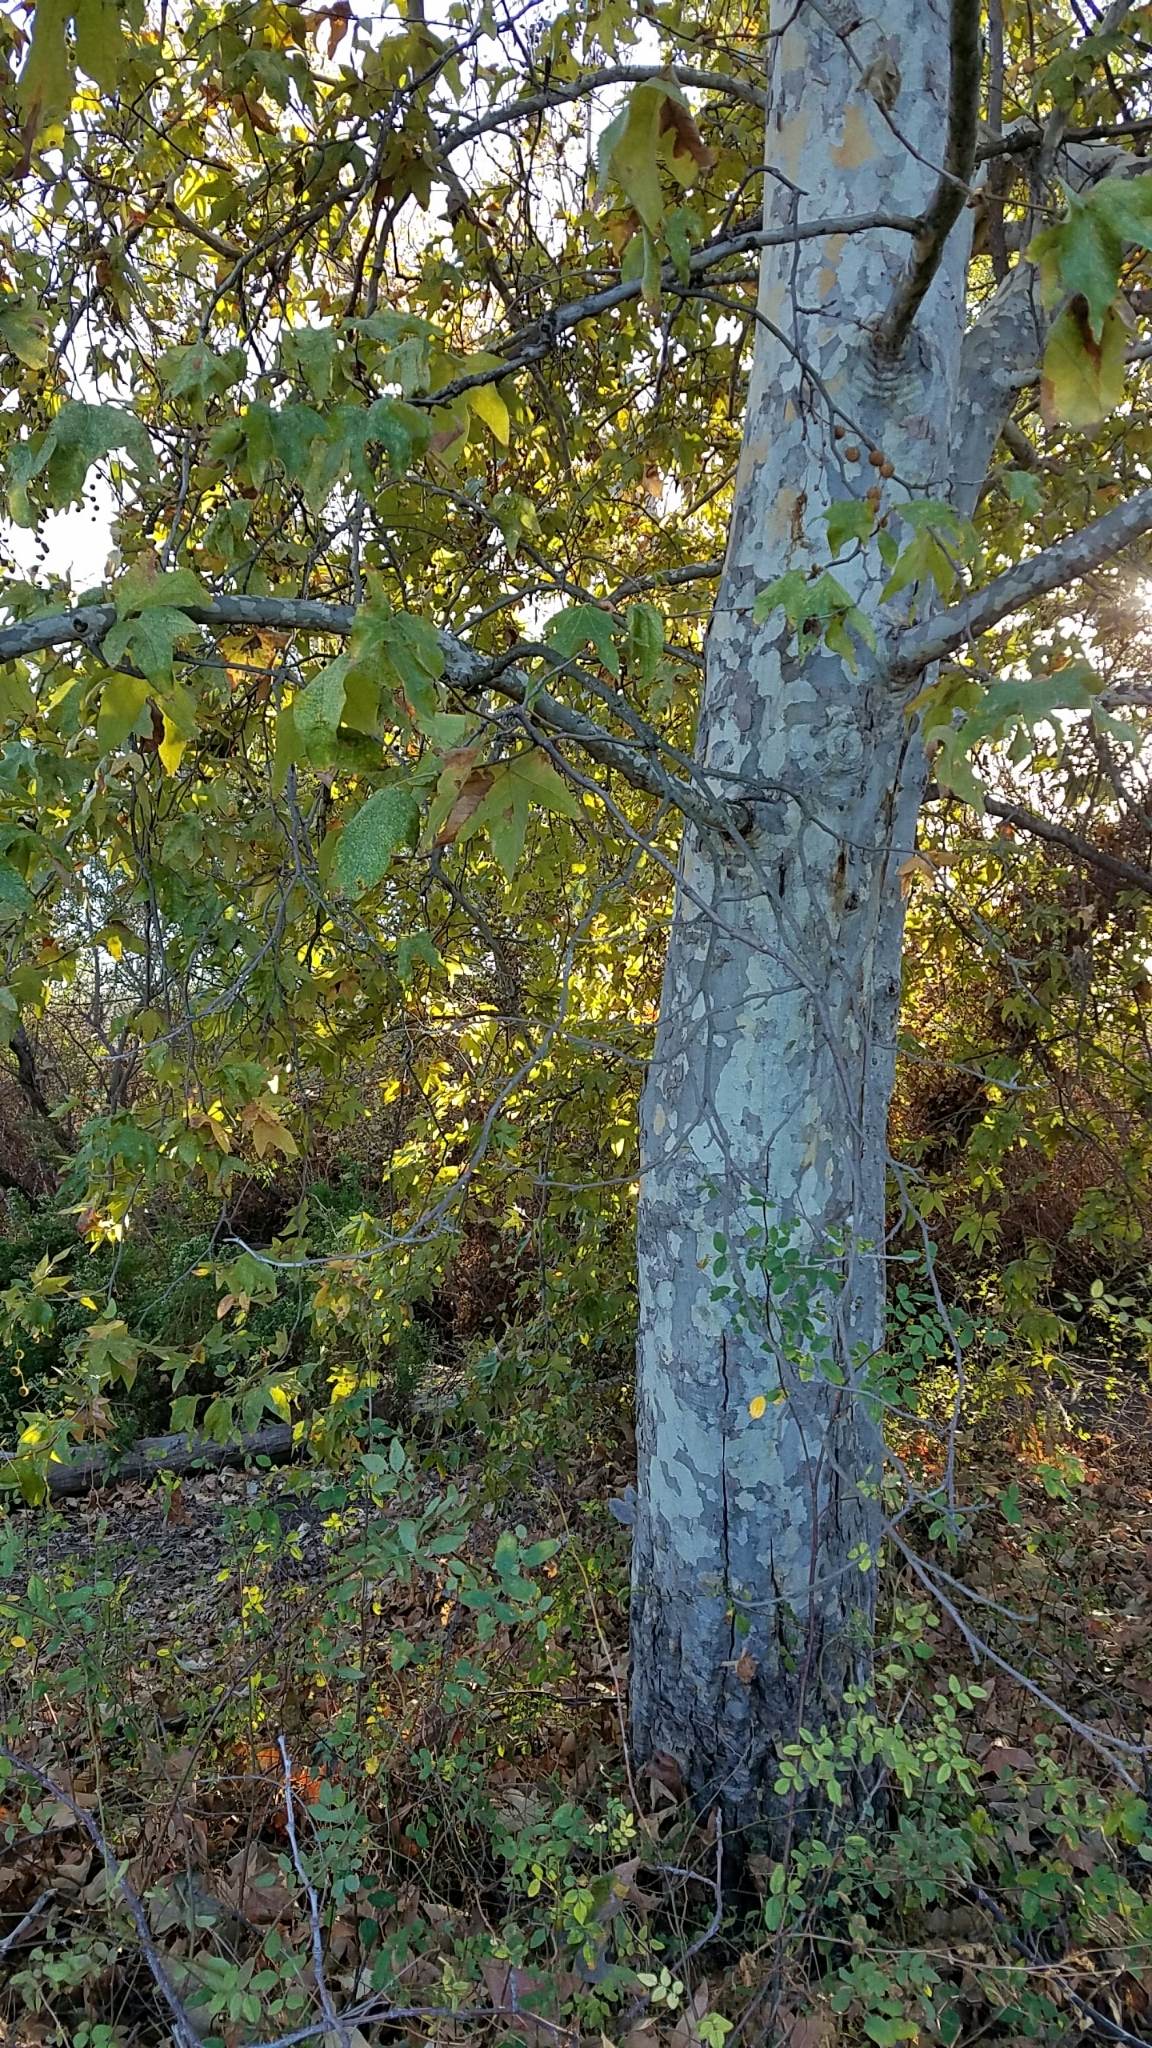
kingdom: Plantae
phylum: Tracheophyta
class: Magnoliopsida
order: Proteales
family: Platanaceae
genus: Platanus
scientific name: Platanus racemosa
